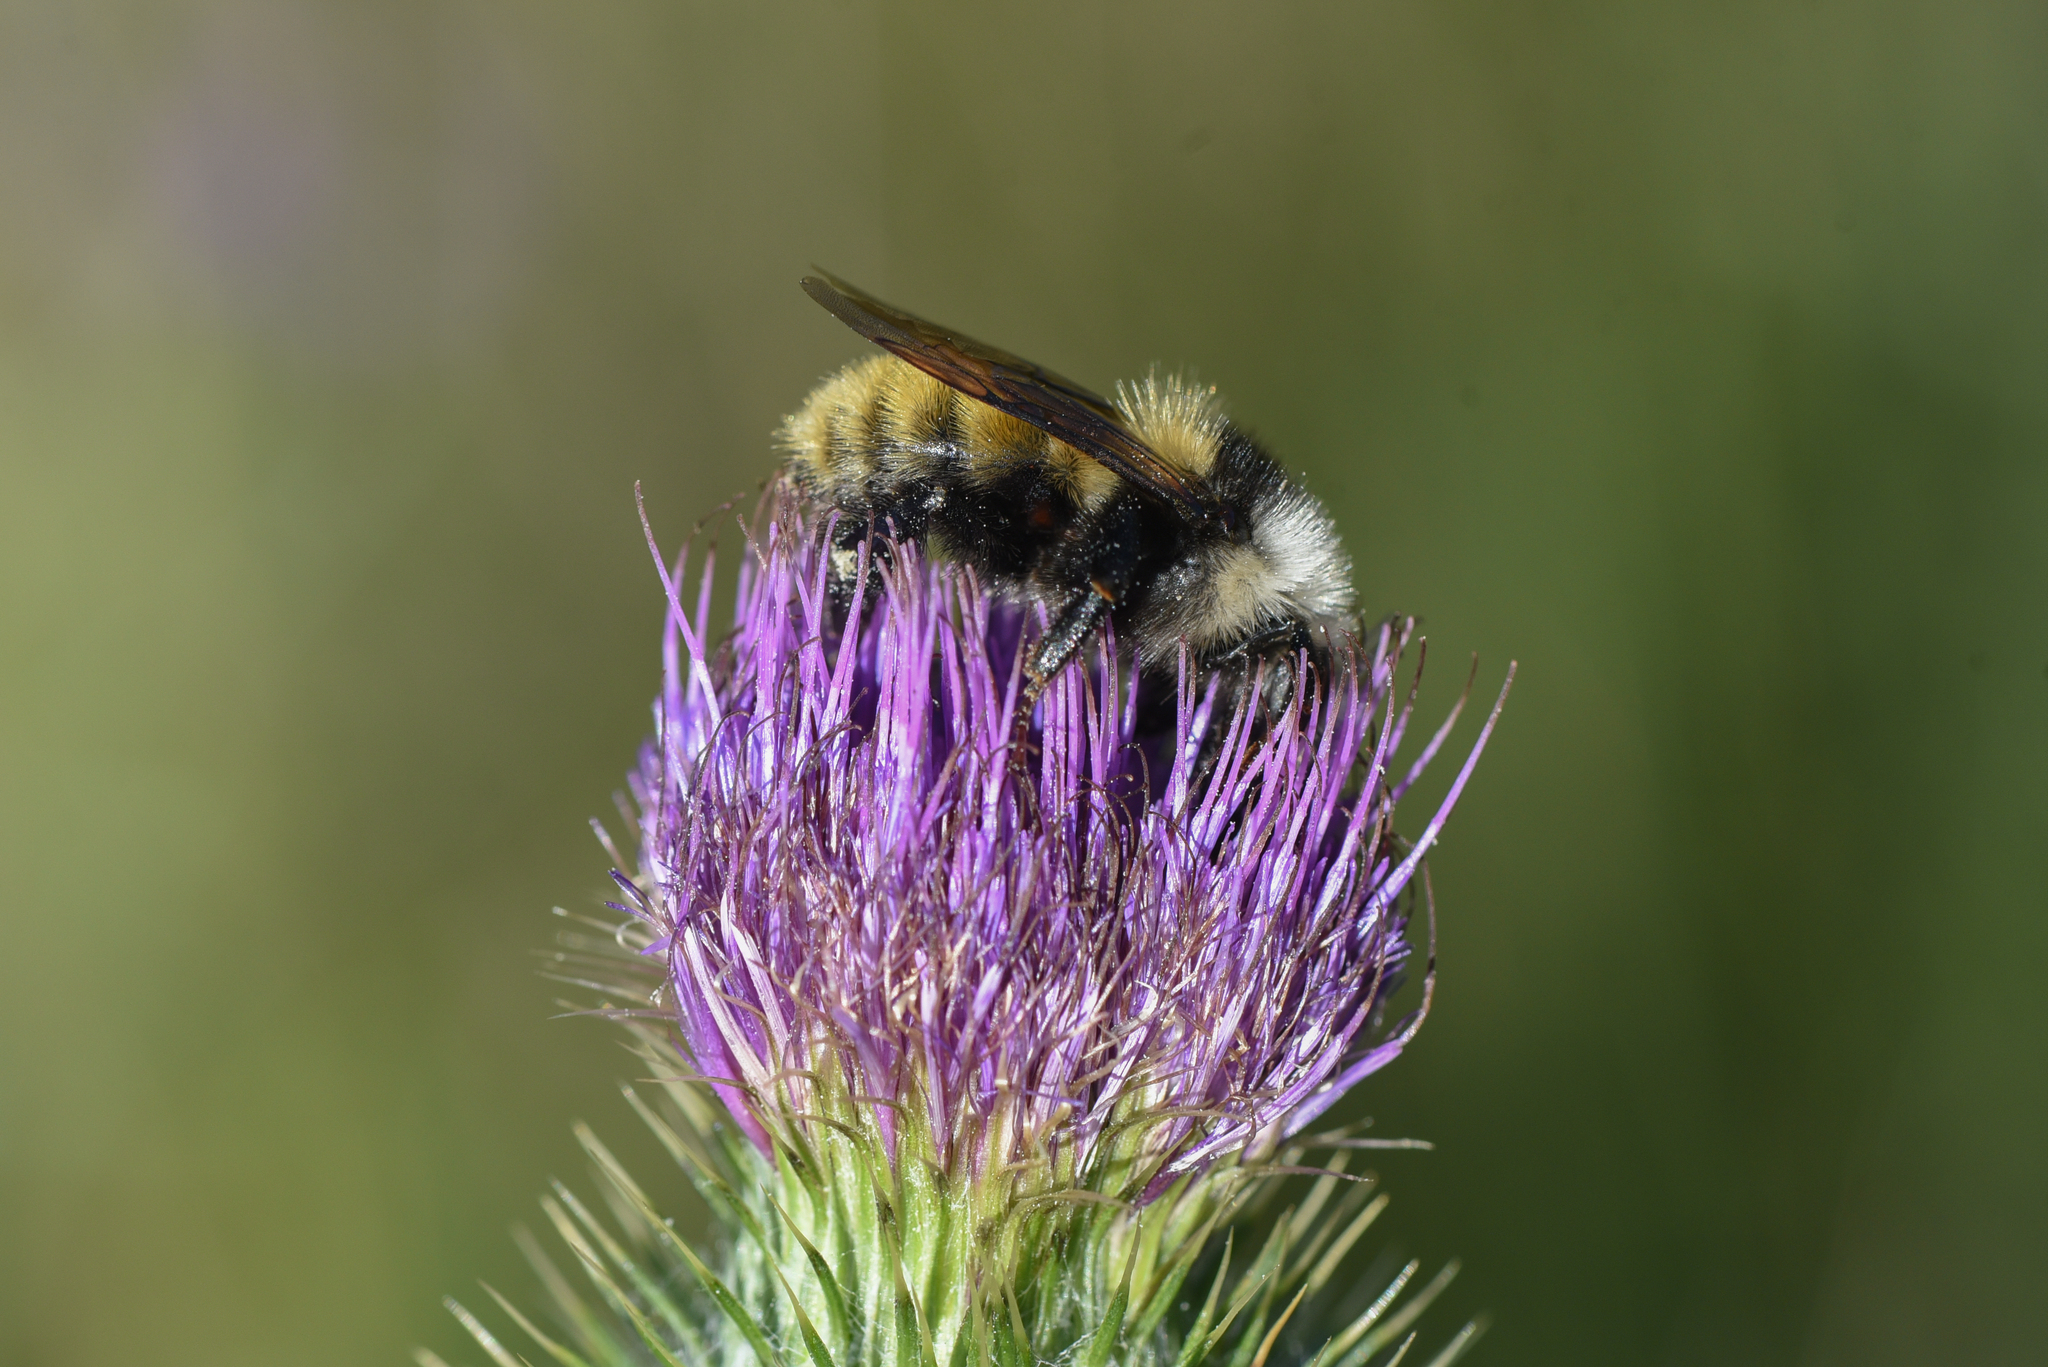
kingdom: Animalia
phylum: Arthropoda
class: Insecta
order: Hymenoptera
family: Apidae
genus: Bombus
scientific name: Bombus appositus
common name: White-shouldered bumble bee
